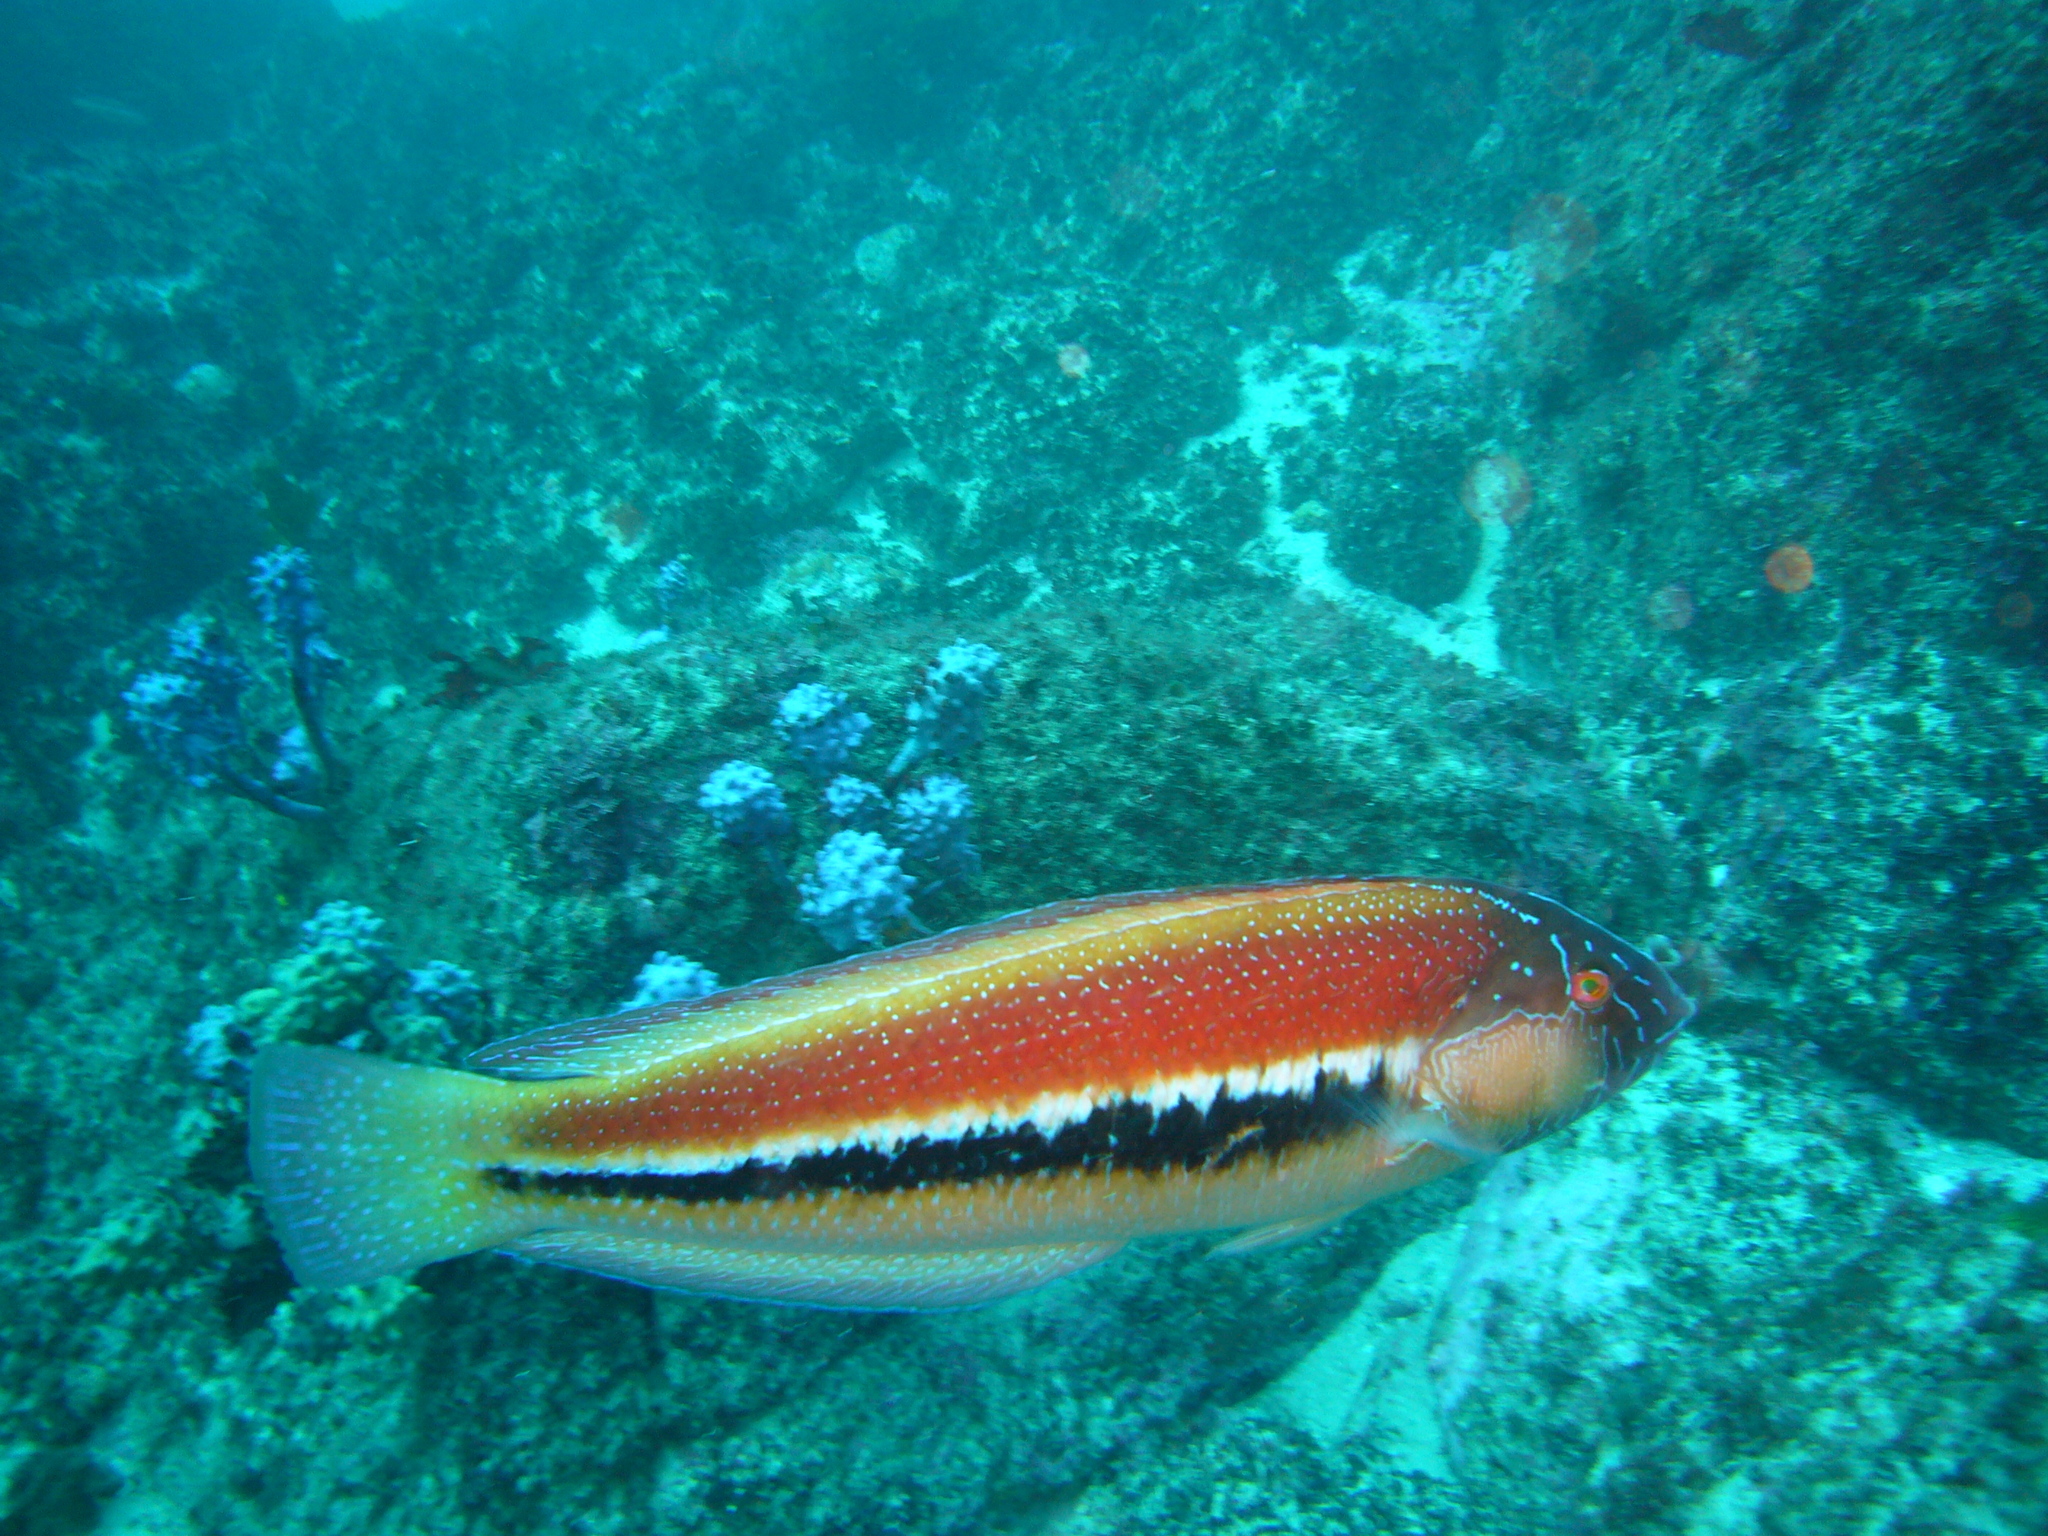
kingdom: Animalia
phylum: Chordata
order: Perciformes
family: Labridae
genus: Ophthalmolepis
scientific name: Ophthalmolepis lineolata
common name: Maori wrasse
